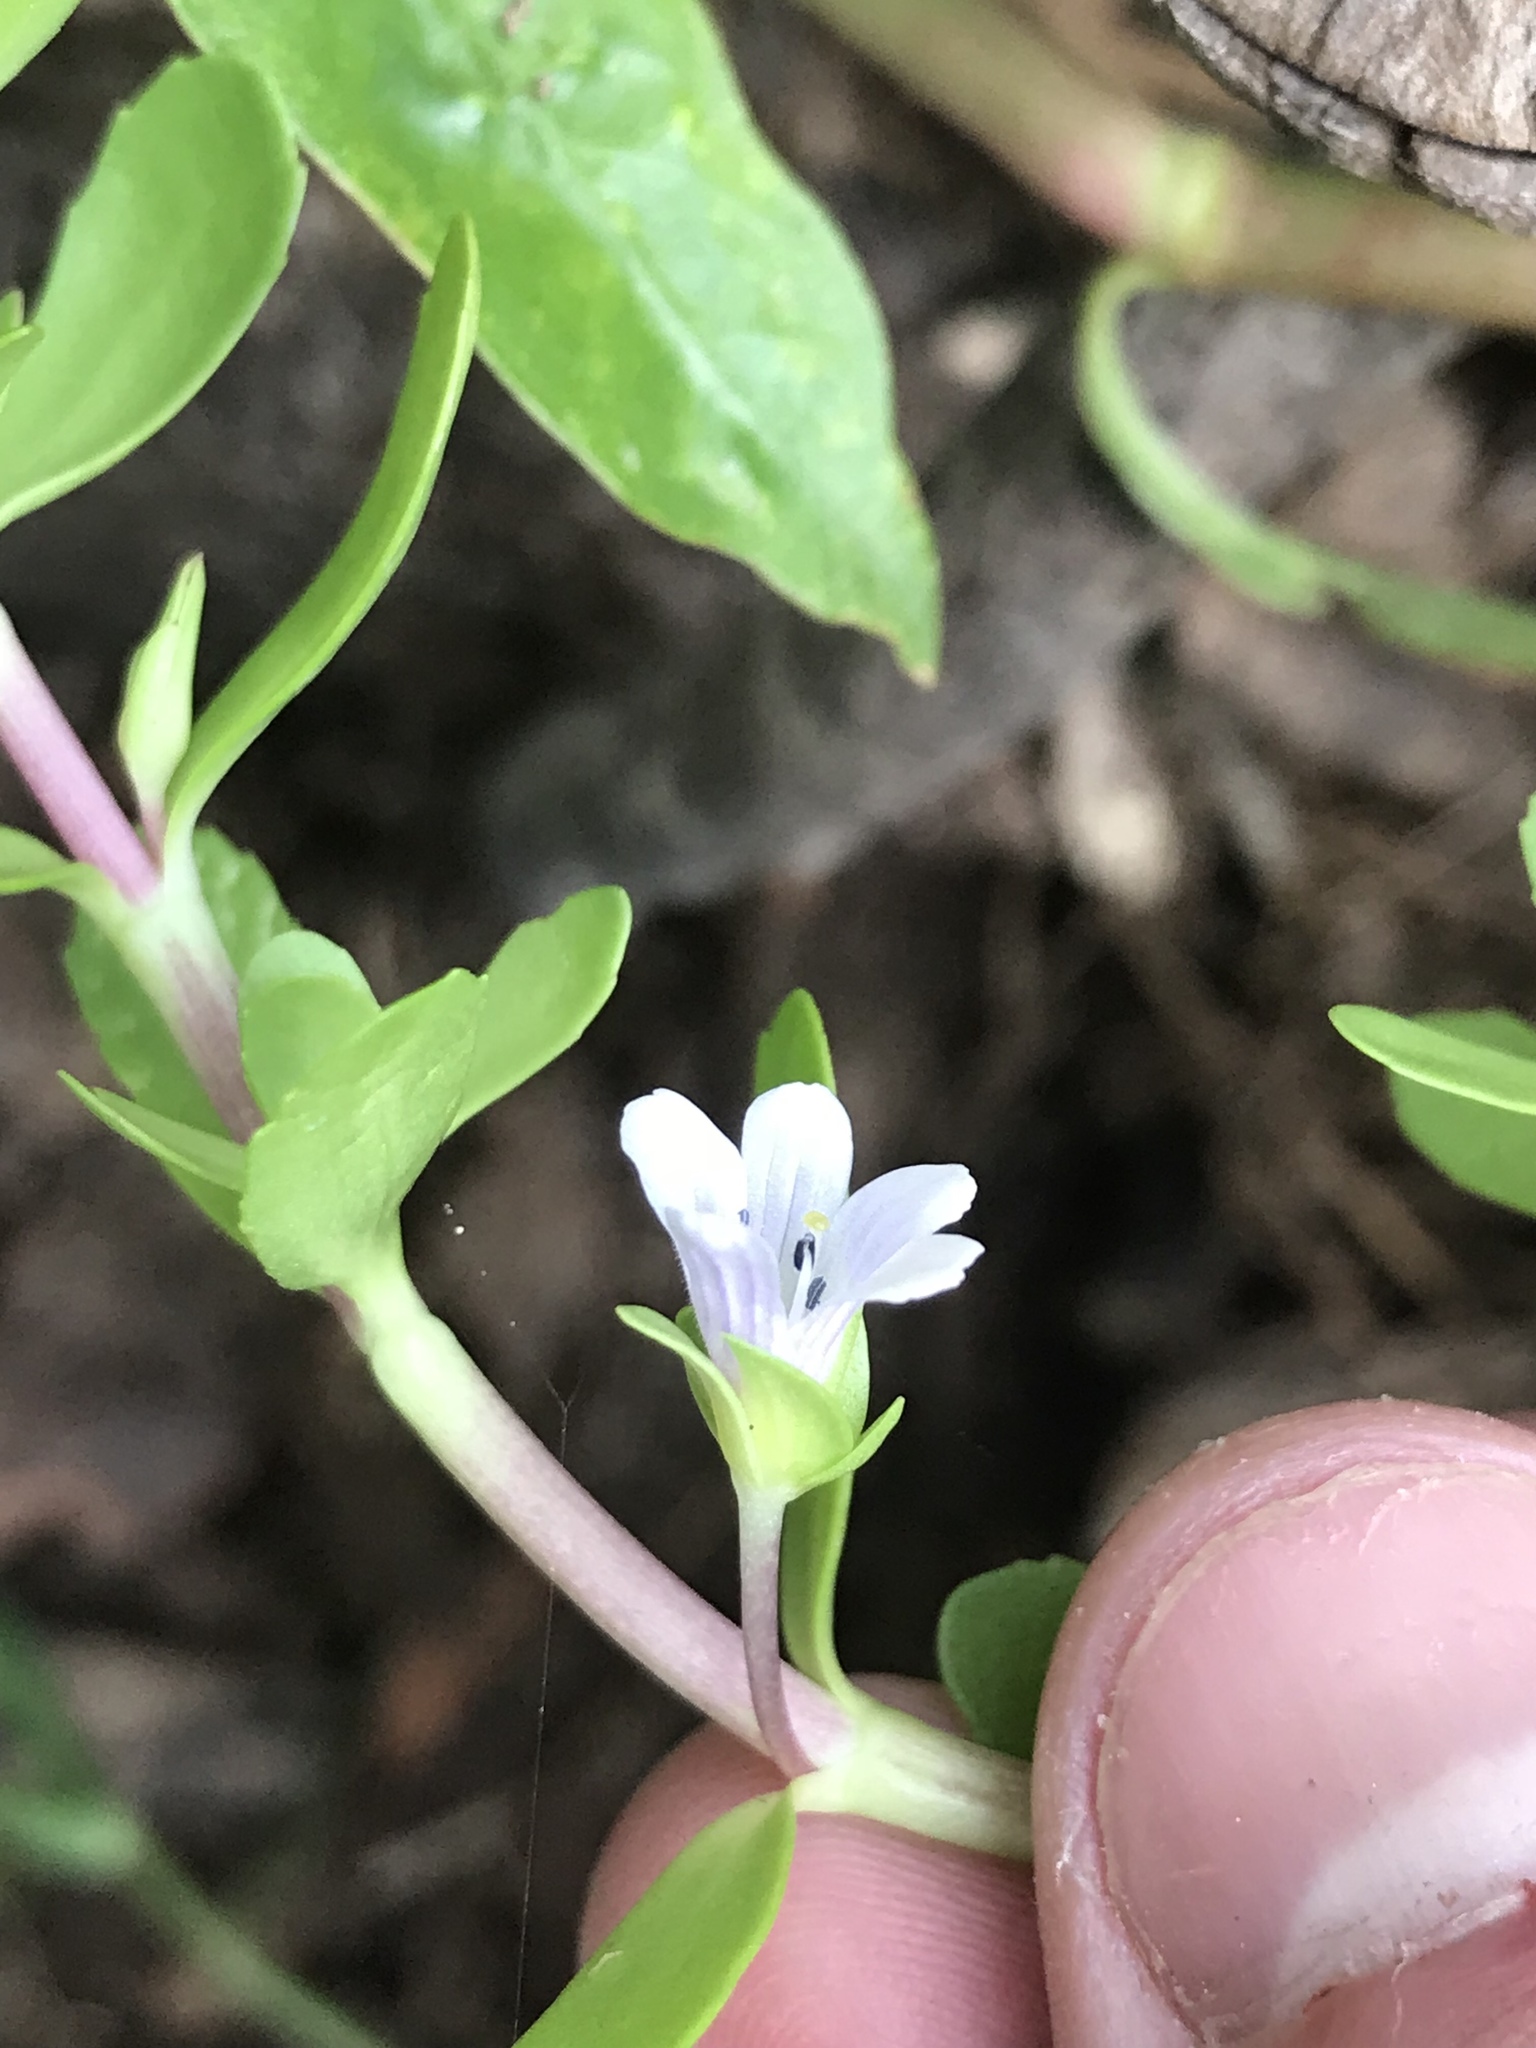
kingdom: Plantae
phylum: Tracheophyta
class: Magnoliopsida
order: Lamiales
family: Plantaginaceae
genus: Bacopa
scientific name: Bacopa monnieri
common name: Indian-pennywort
